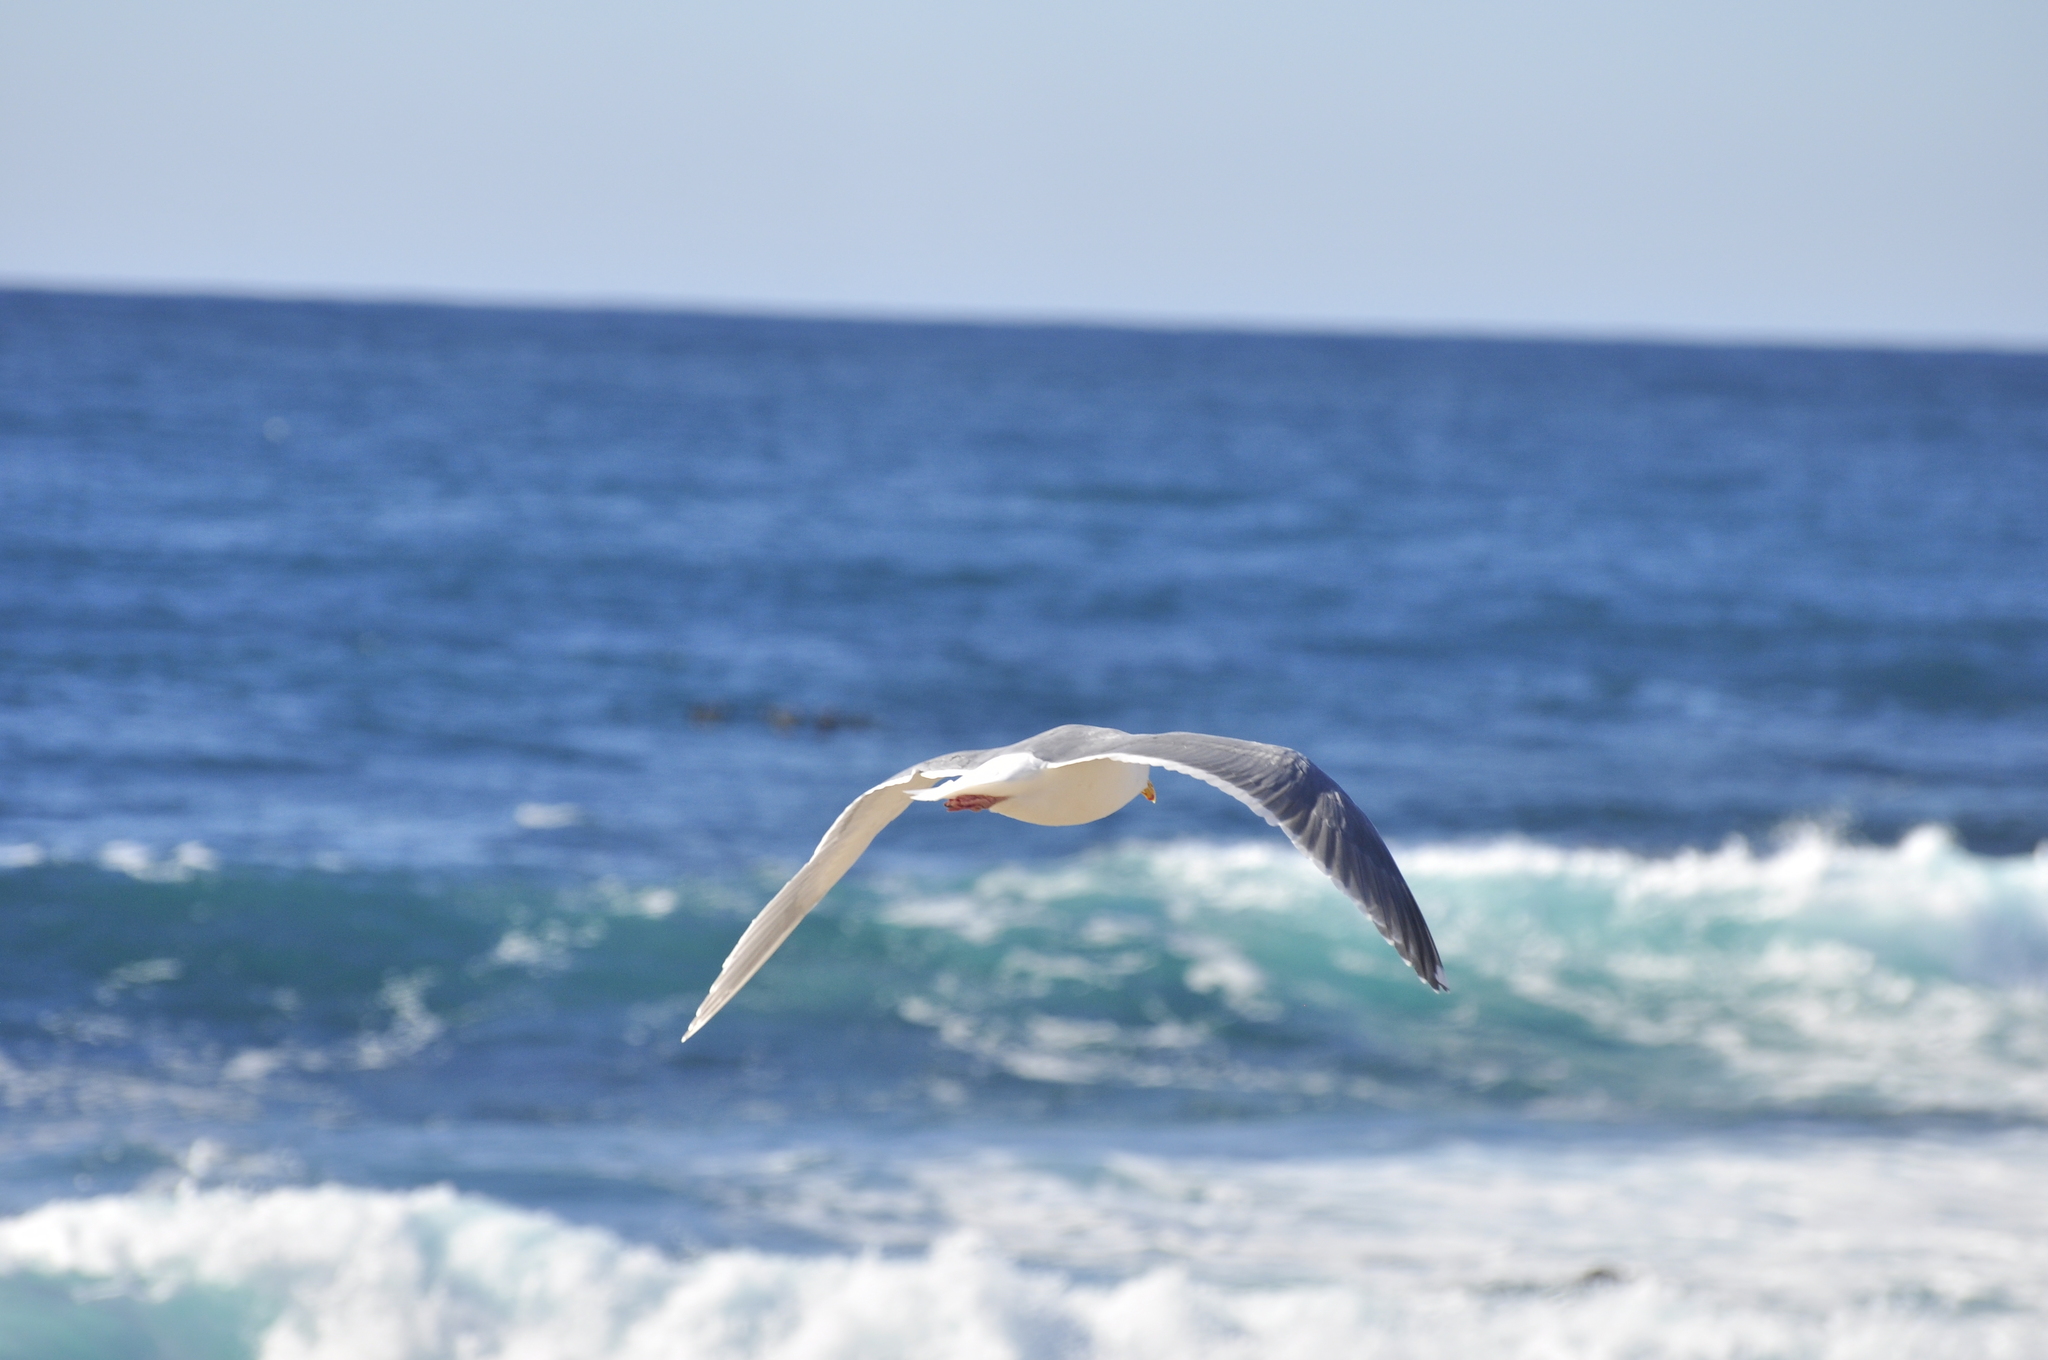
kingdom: Animalia
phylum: Chordata
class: Aves
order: Charadriiformes
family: Laridae
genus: Larus
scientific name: Larus glaucescens
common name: Glaucous-winged gull
